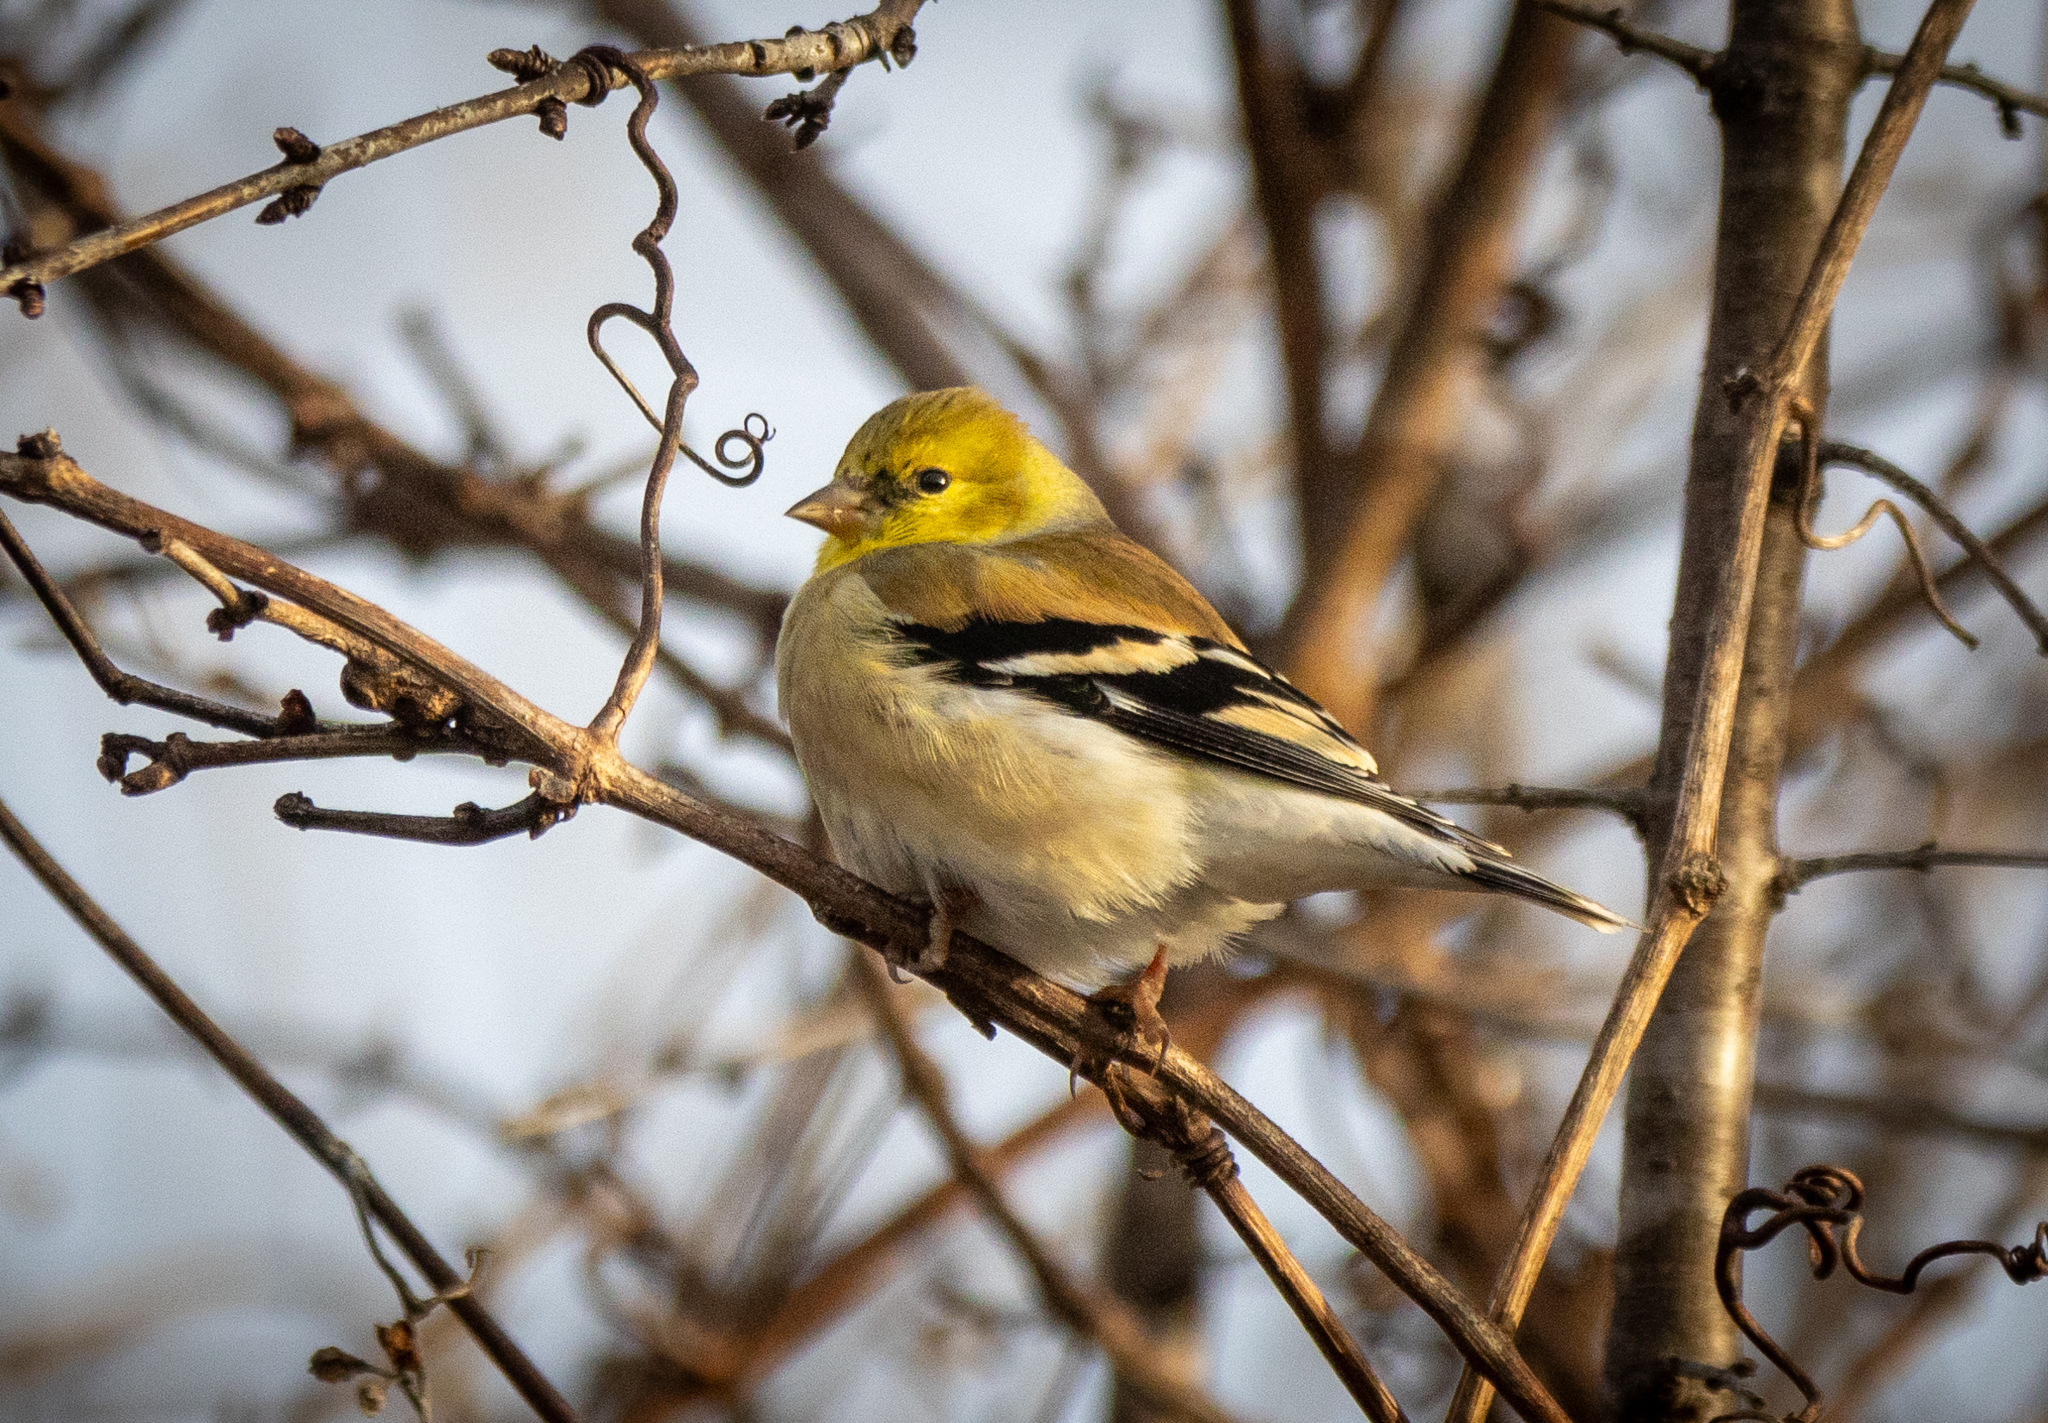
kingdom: Animalia
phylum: Chordata
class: Aves
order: Passeriformes
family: Fringillidae
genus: Spinus
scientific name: Spinus tristis
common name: American goldfinch
